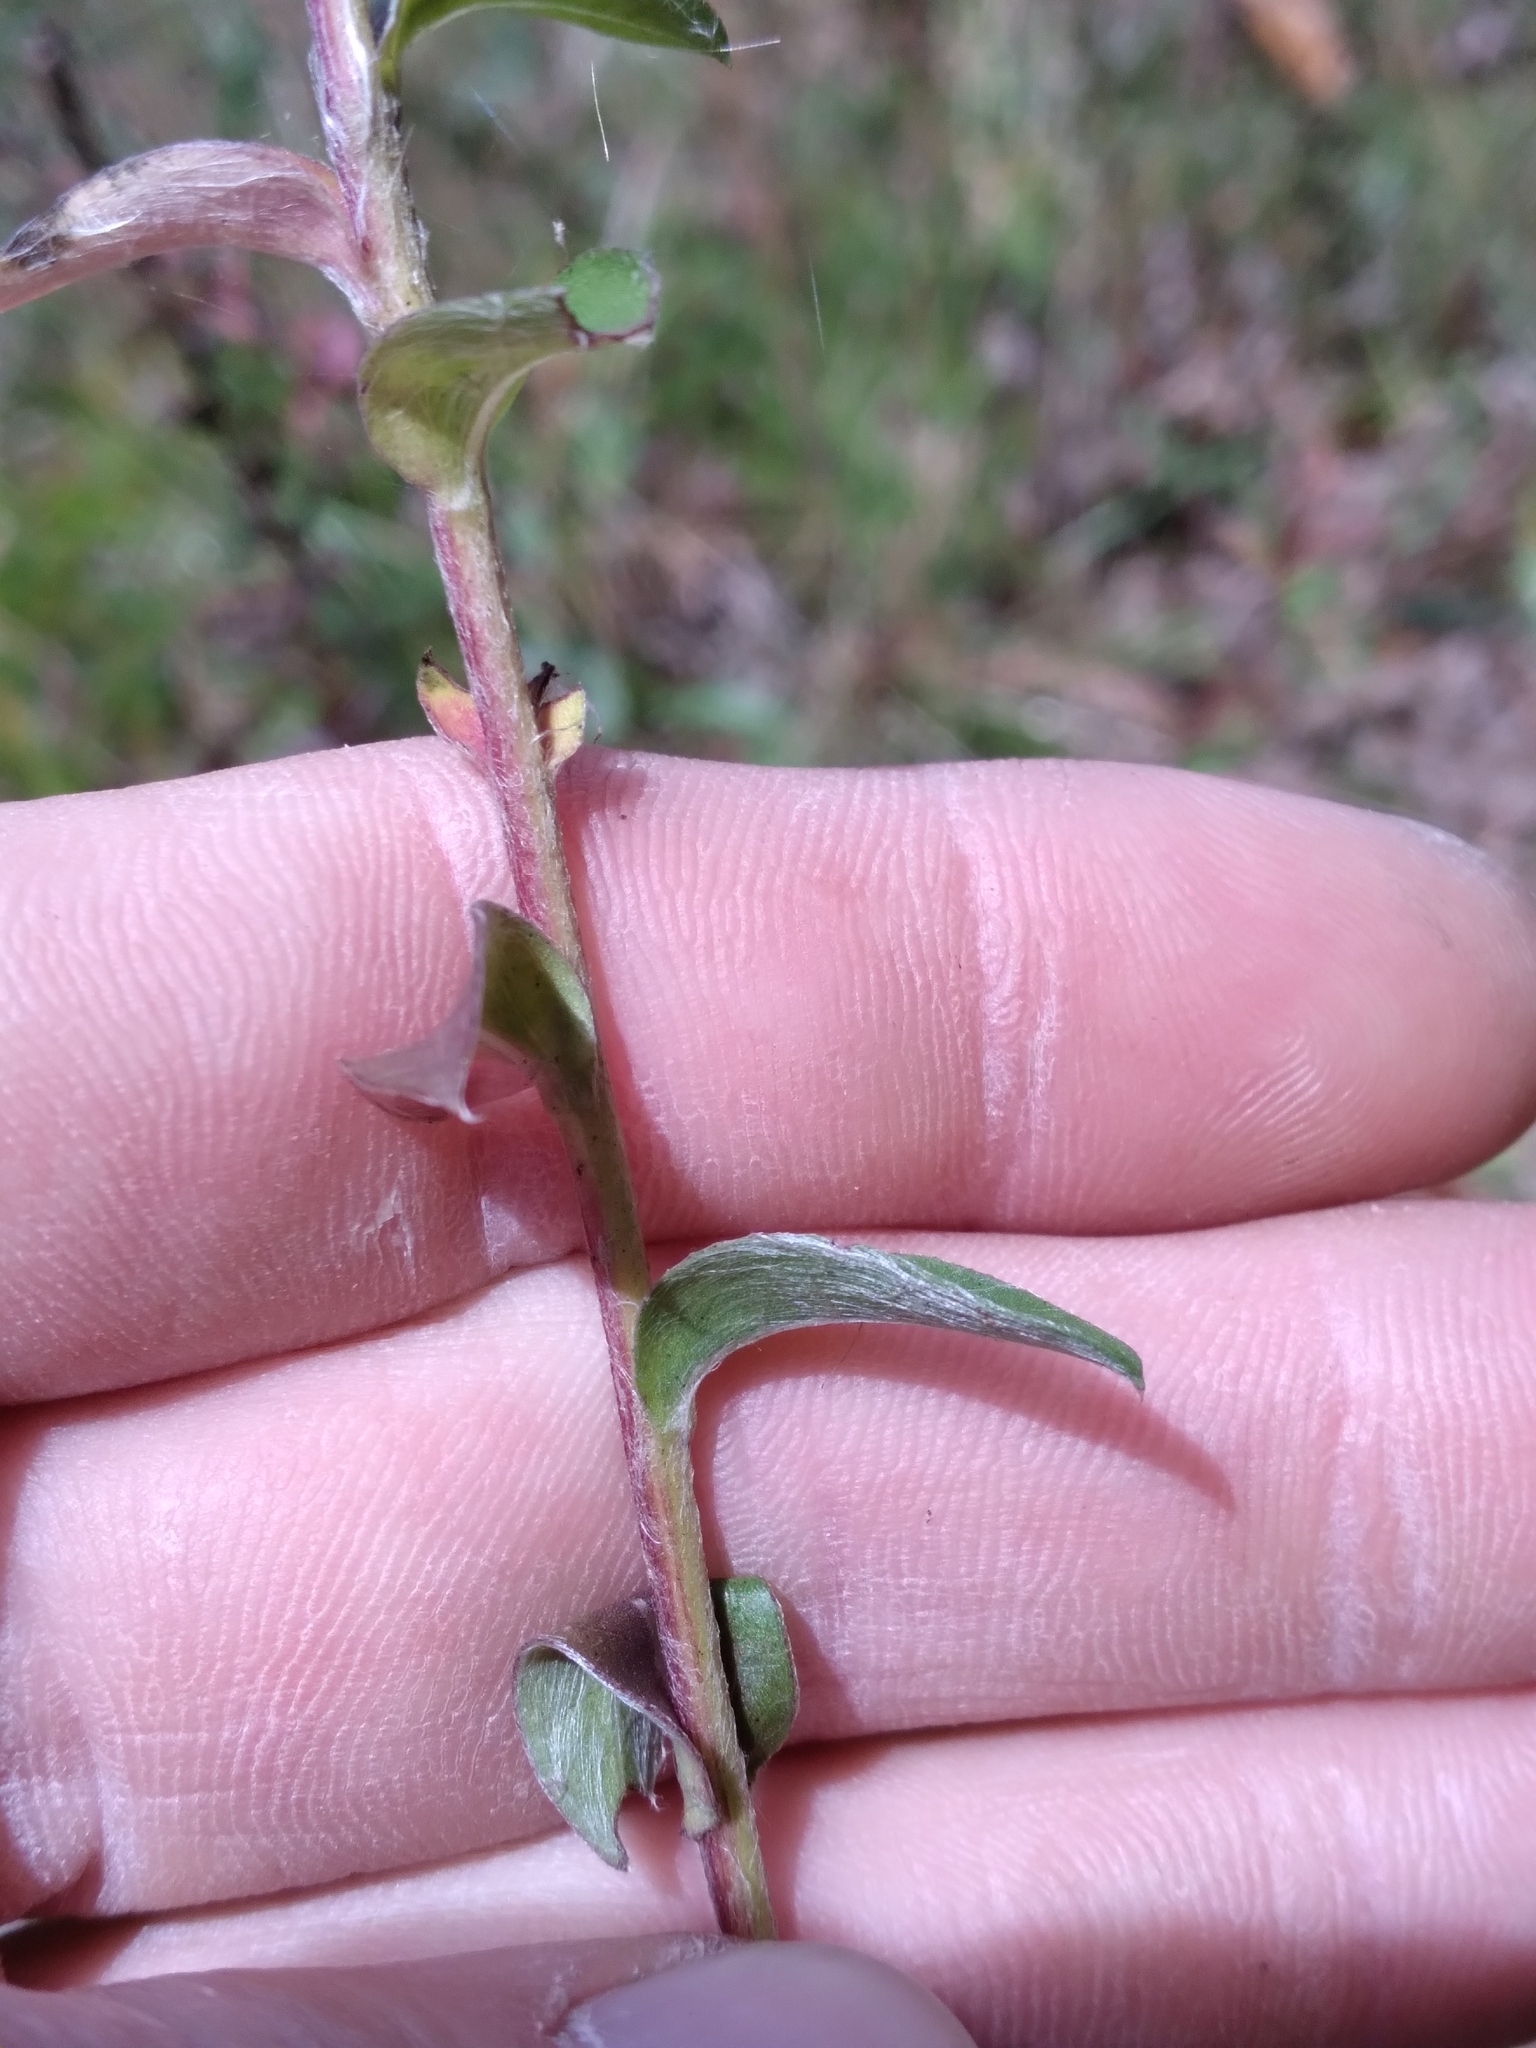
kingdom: Plantae
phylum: Tracheophyta
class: Magnoliopsida
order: Asterales
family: Asteraceae
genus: Chrysopsis
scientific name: Chrysopsis mariana
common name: Maryland golden-aster
